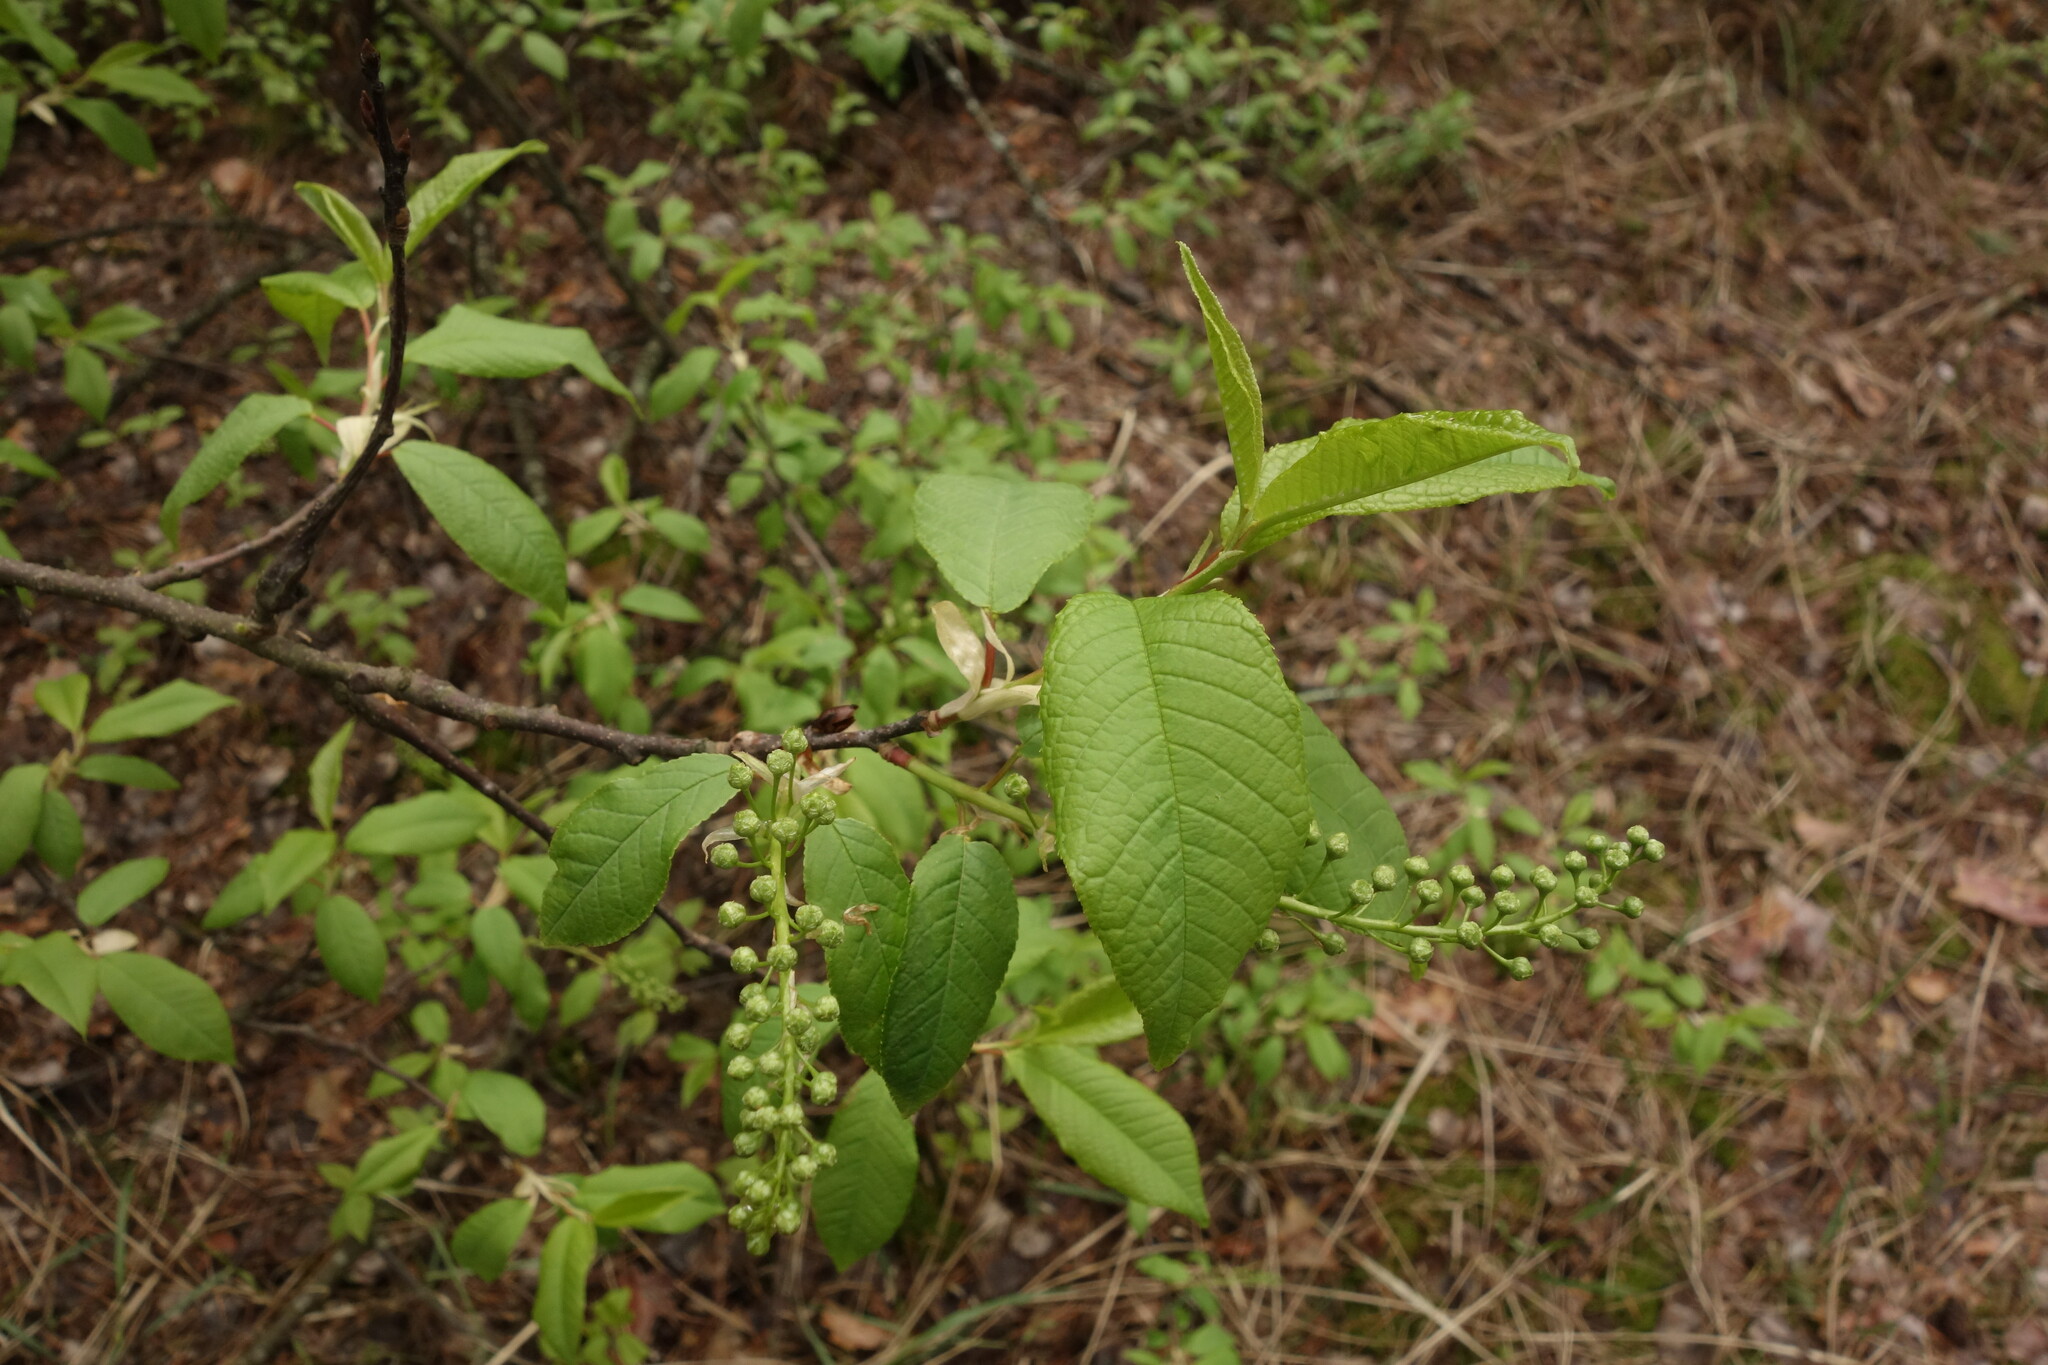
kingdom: Plantae
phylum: Tracheophyta
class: Magnoliopsida
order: Rosales
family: Rosaceae
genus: Prunus
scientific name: Prunus padus
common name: Bird cherry
